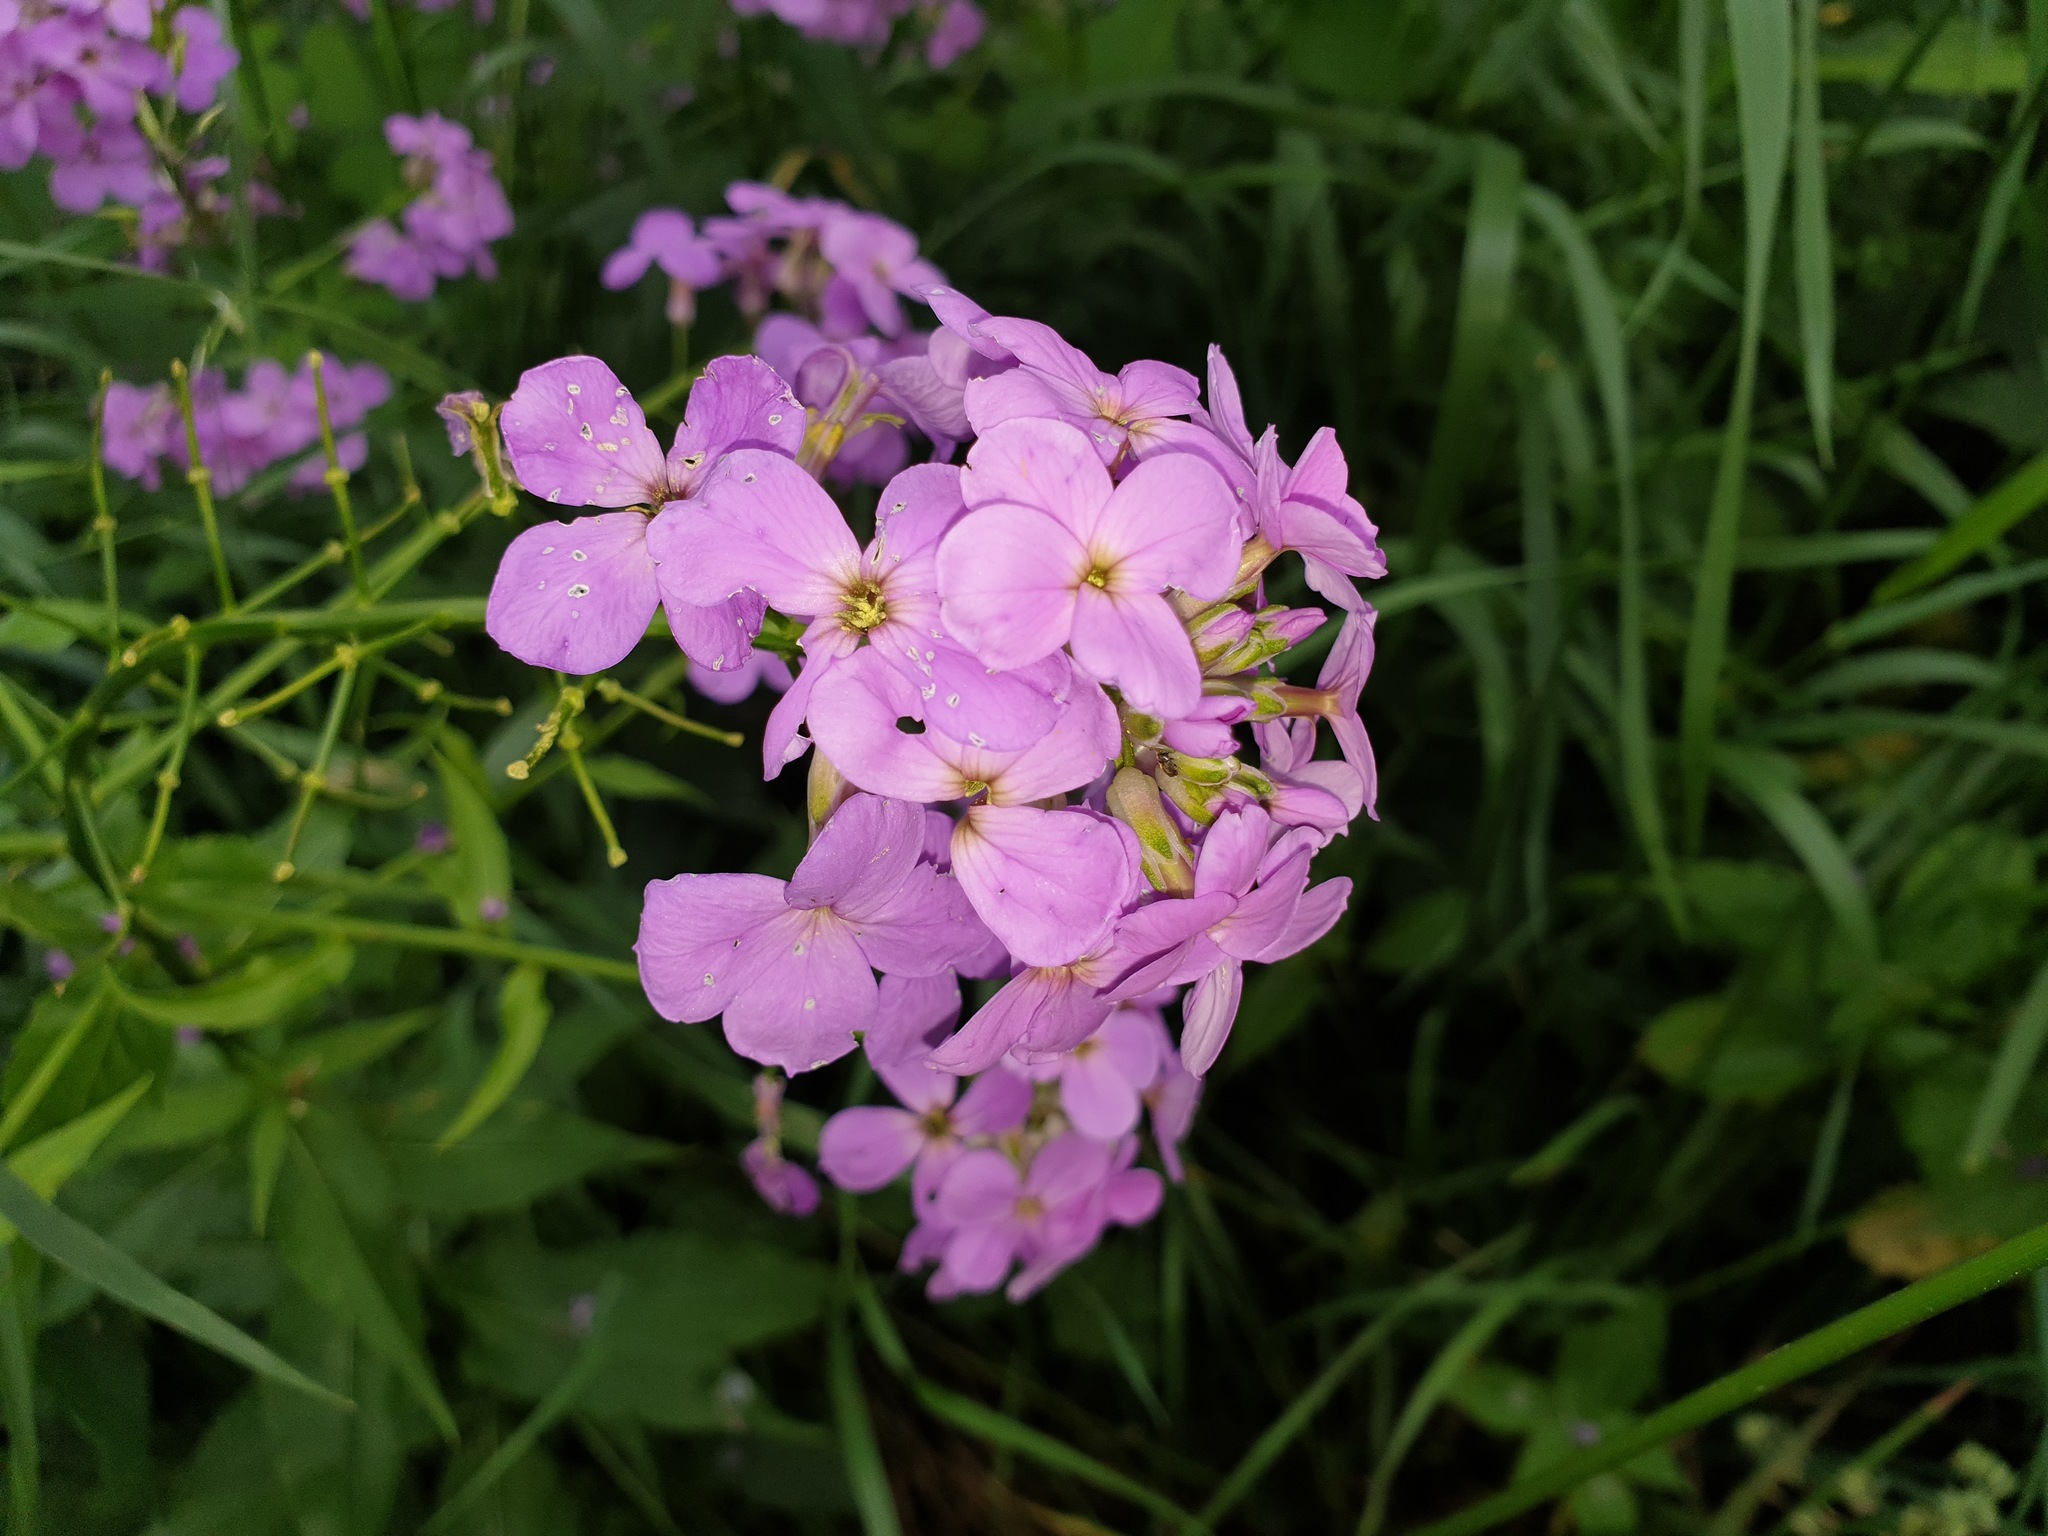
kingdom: Plantae
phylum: Tracheophyta
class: Magnoliopsida
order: Brassicales
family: Brassicaceae
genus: Hesperis
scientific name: Hesperis matronalis
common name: Dame's-violet
